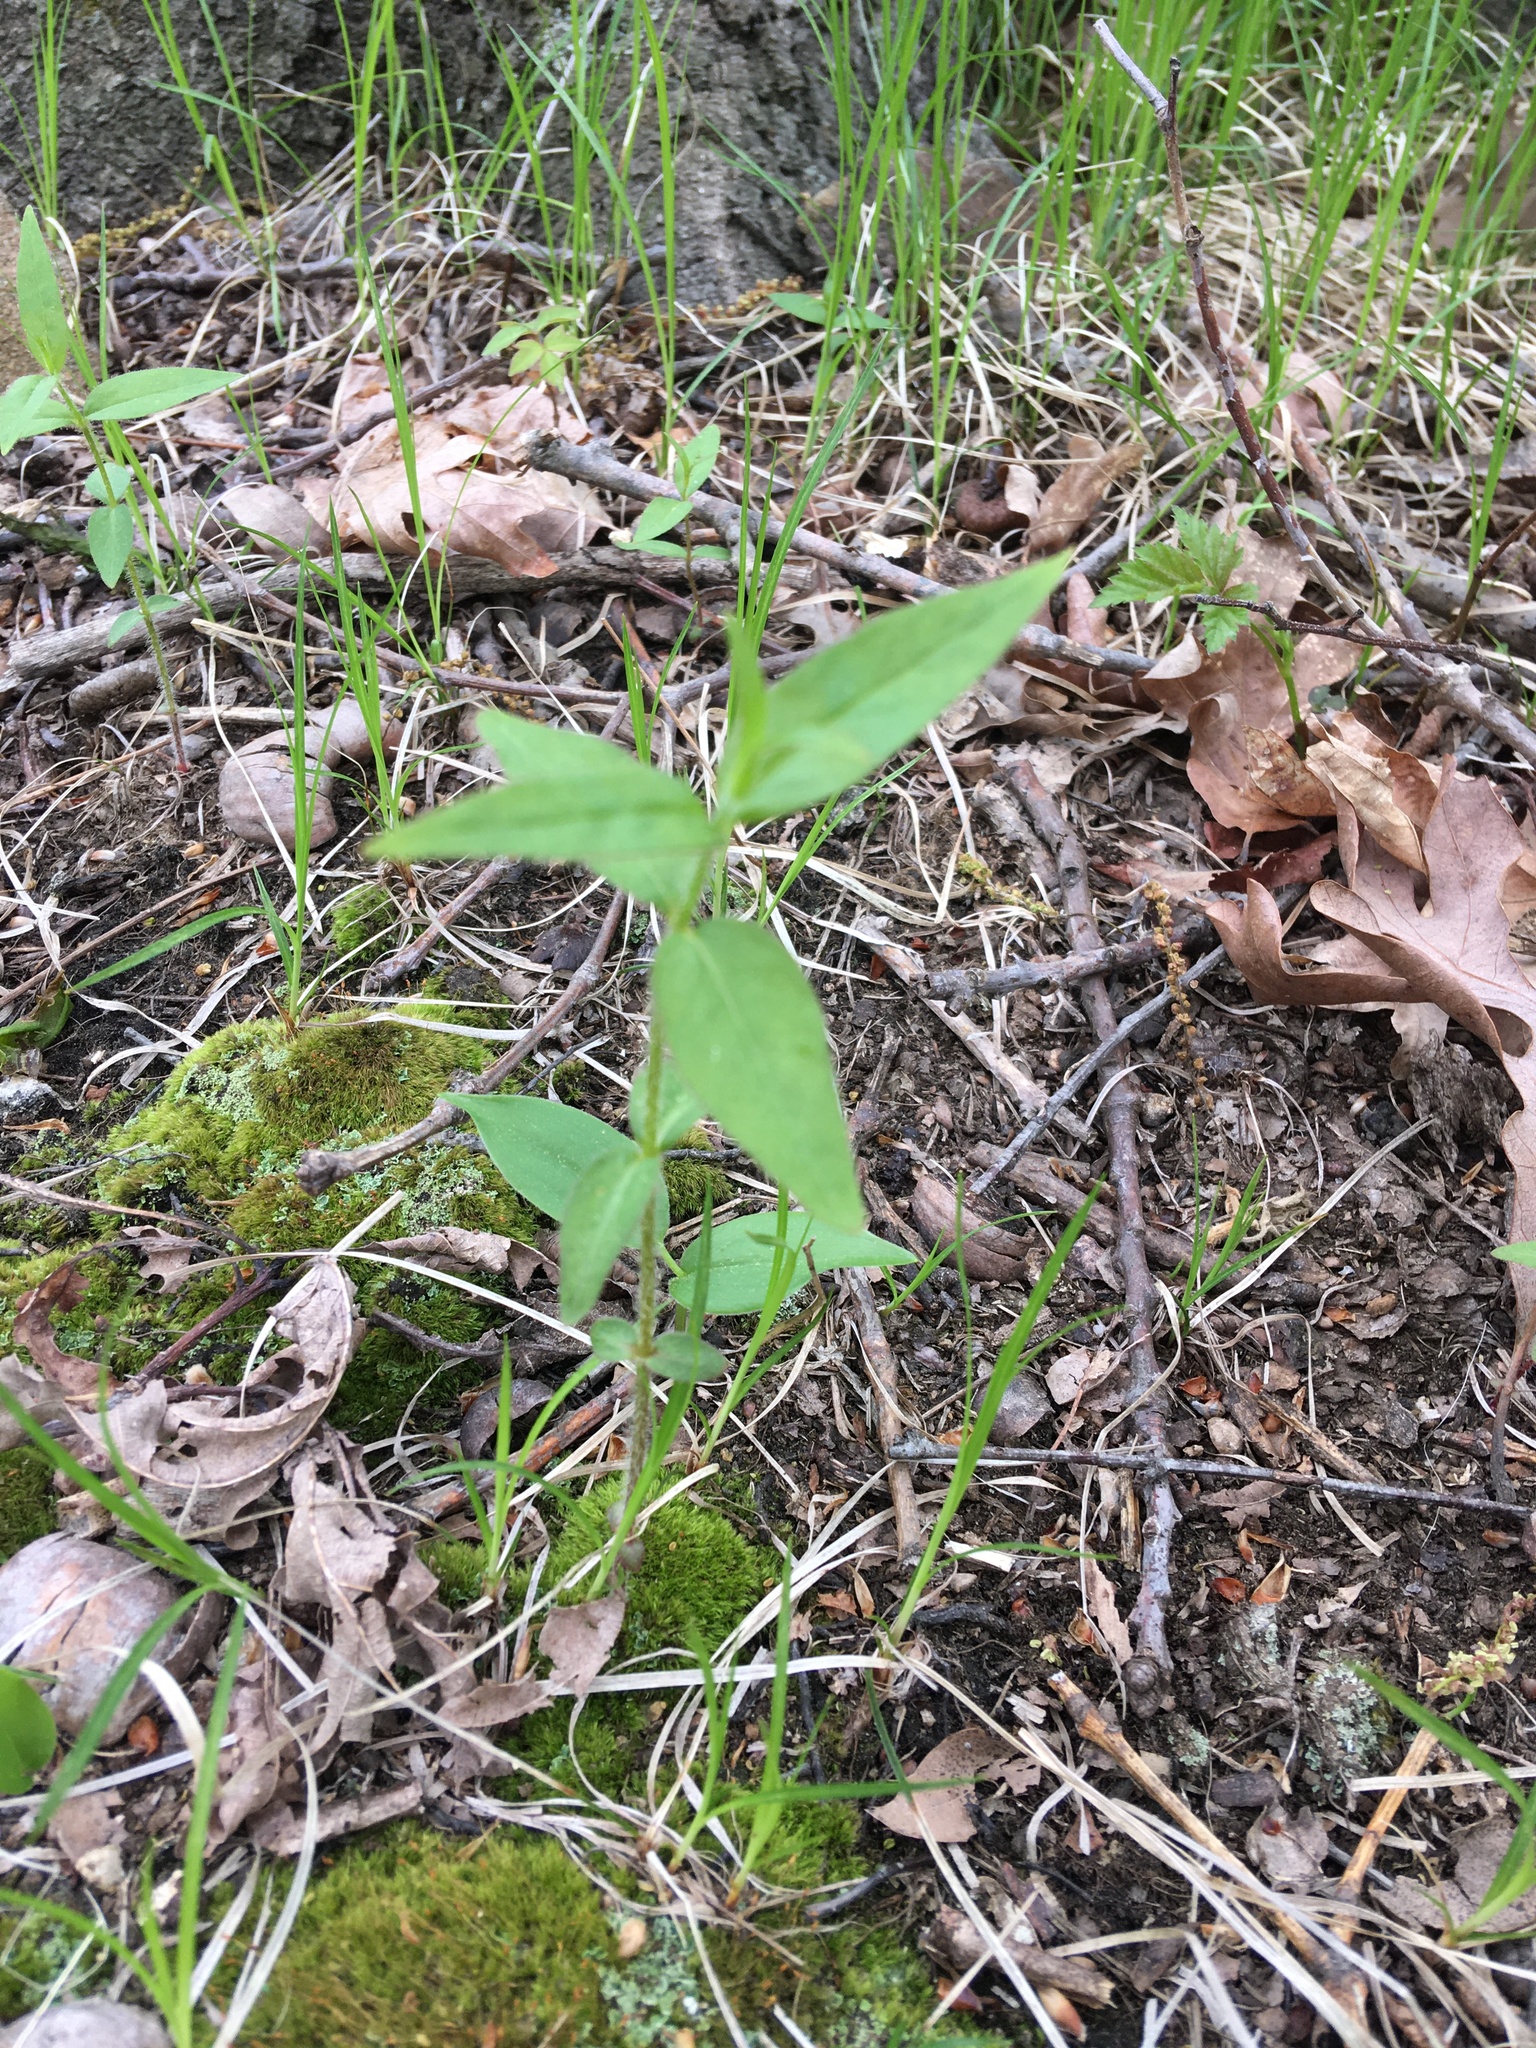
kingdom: Plantae
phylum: Tracheophyta
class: Magnoliopsida
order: Ericales
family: Primulaceae
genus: Lysimachia
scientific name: Lysimachia quadrifolia
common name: Whorled loosestrife
